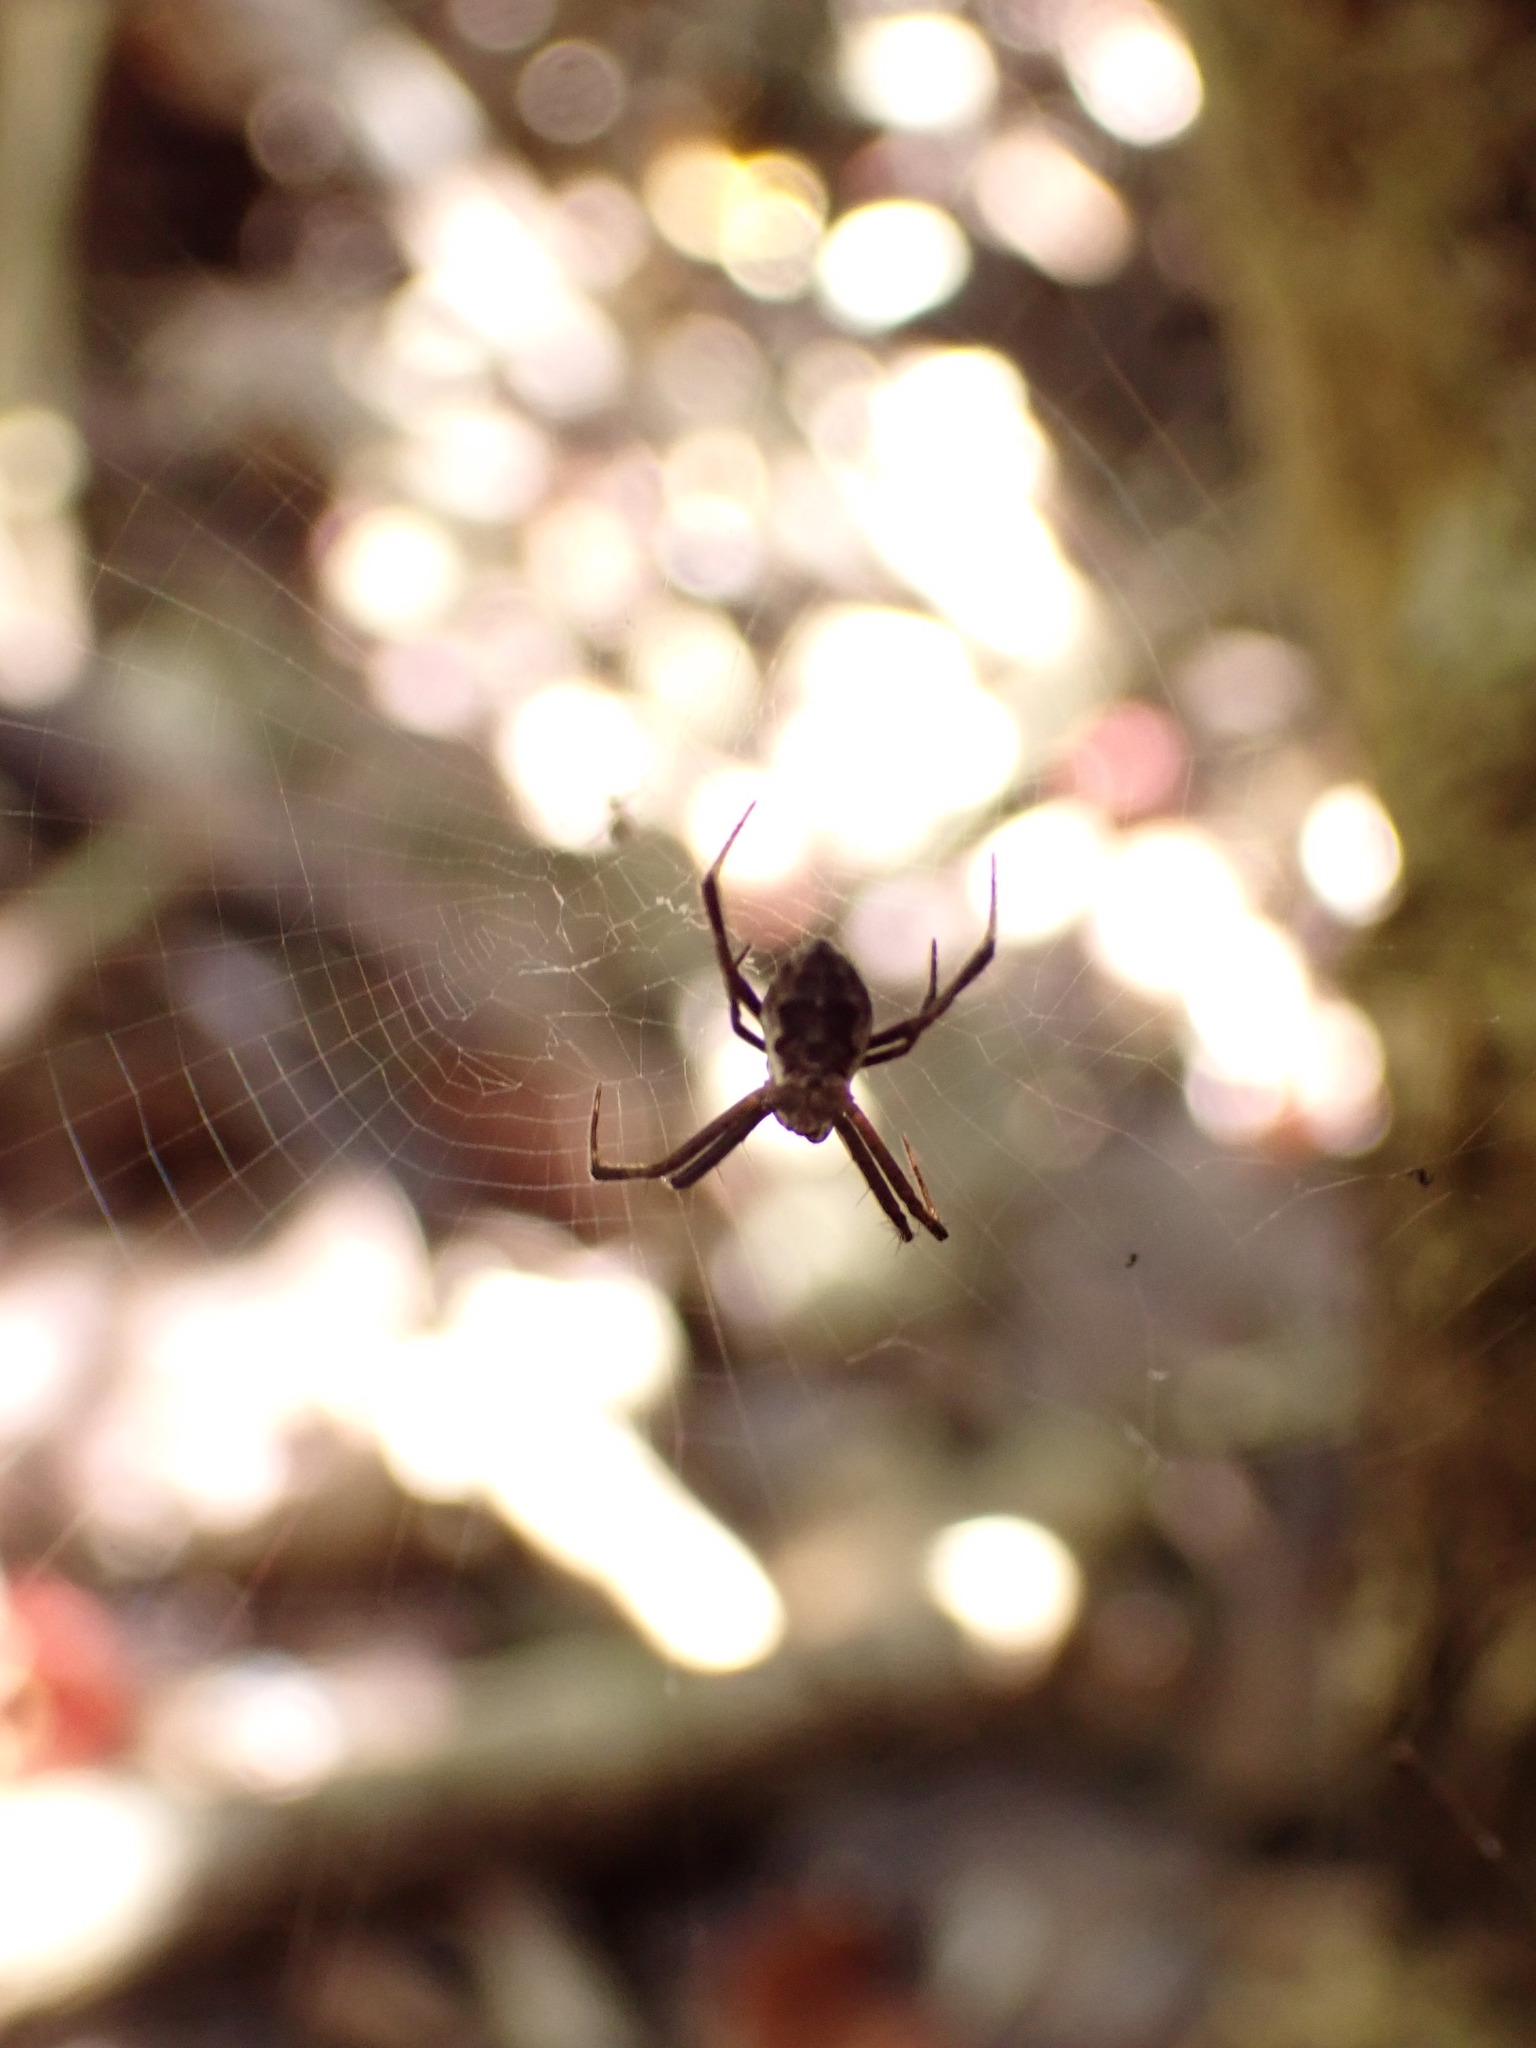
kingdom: Animalia
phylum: Arthropoda
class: Arachnida
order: Araneae
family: Araneidae
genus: Argiope
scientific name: Argiope appensa
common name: Garden spider
